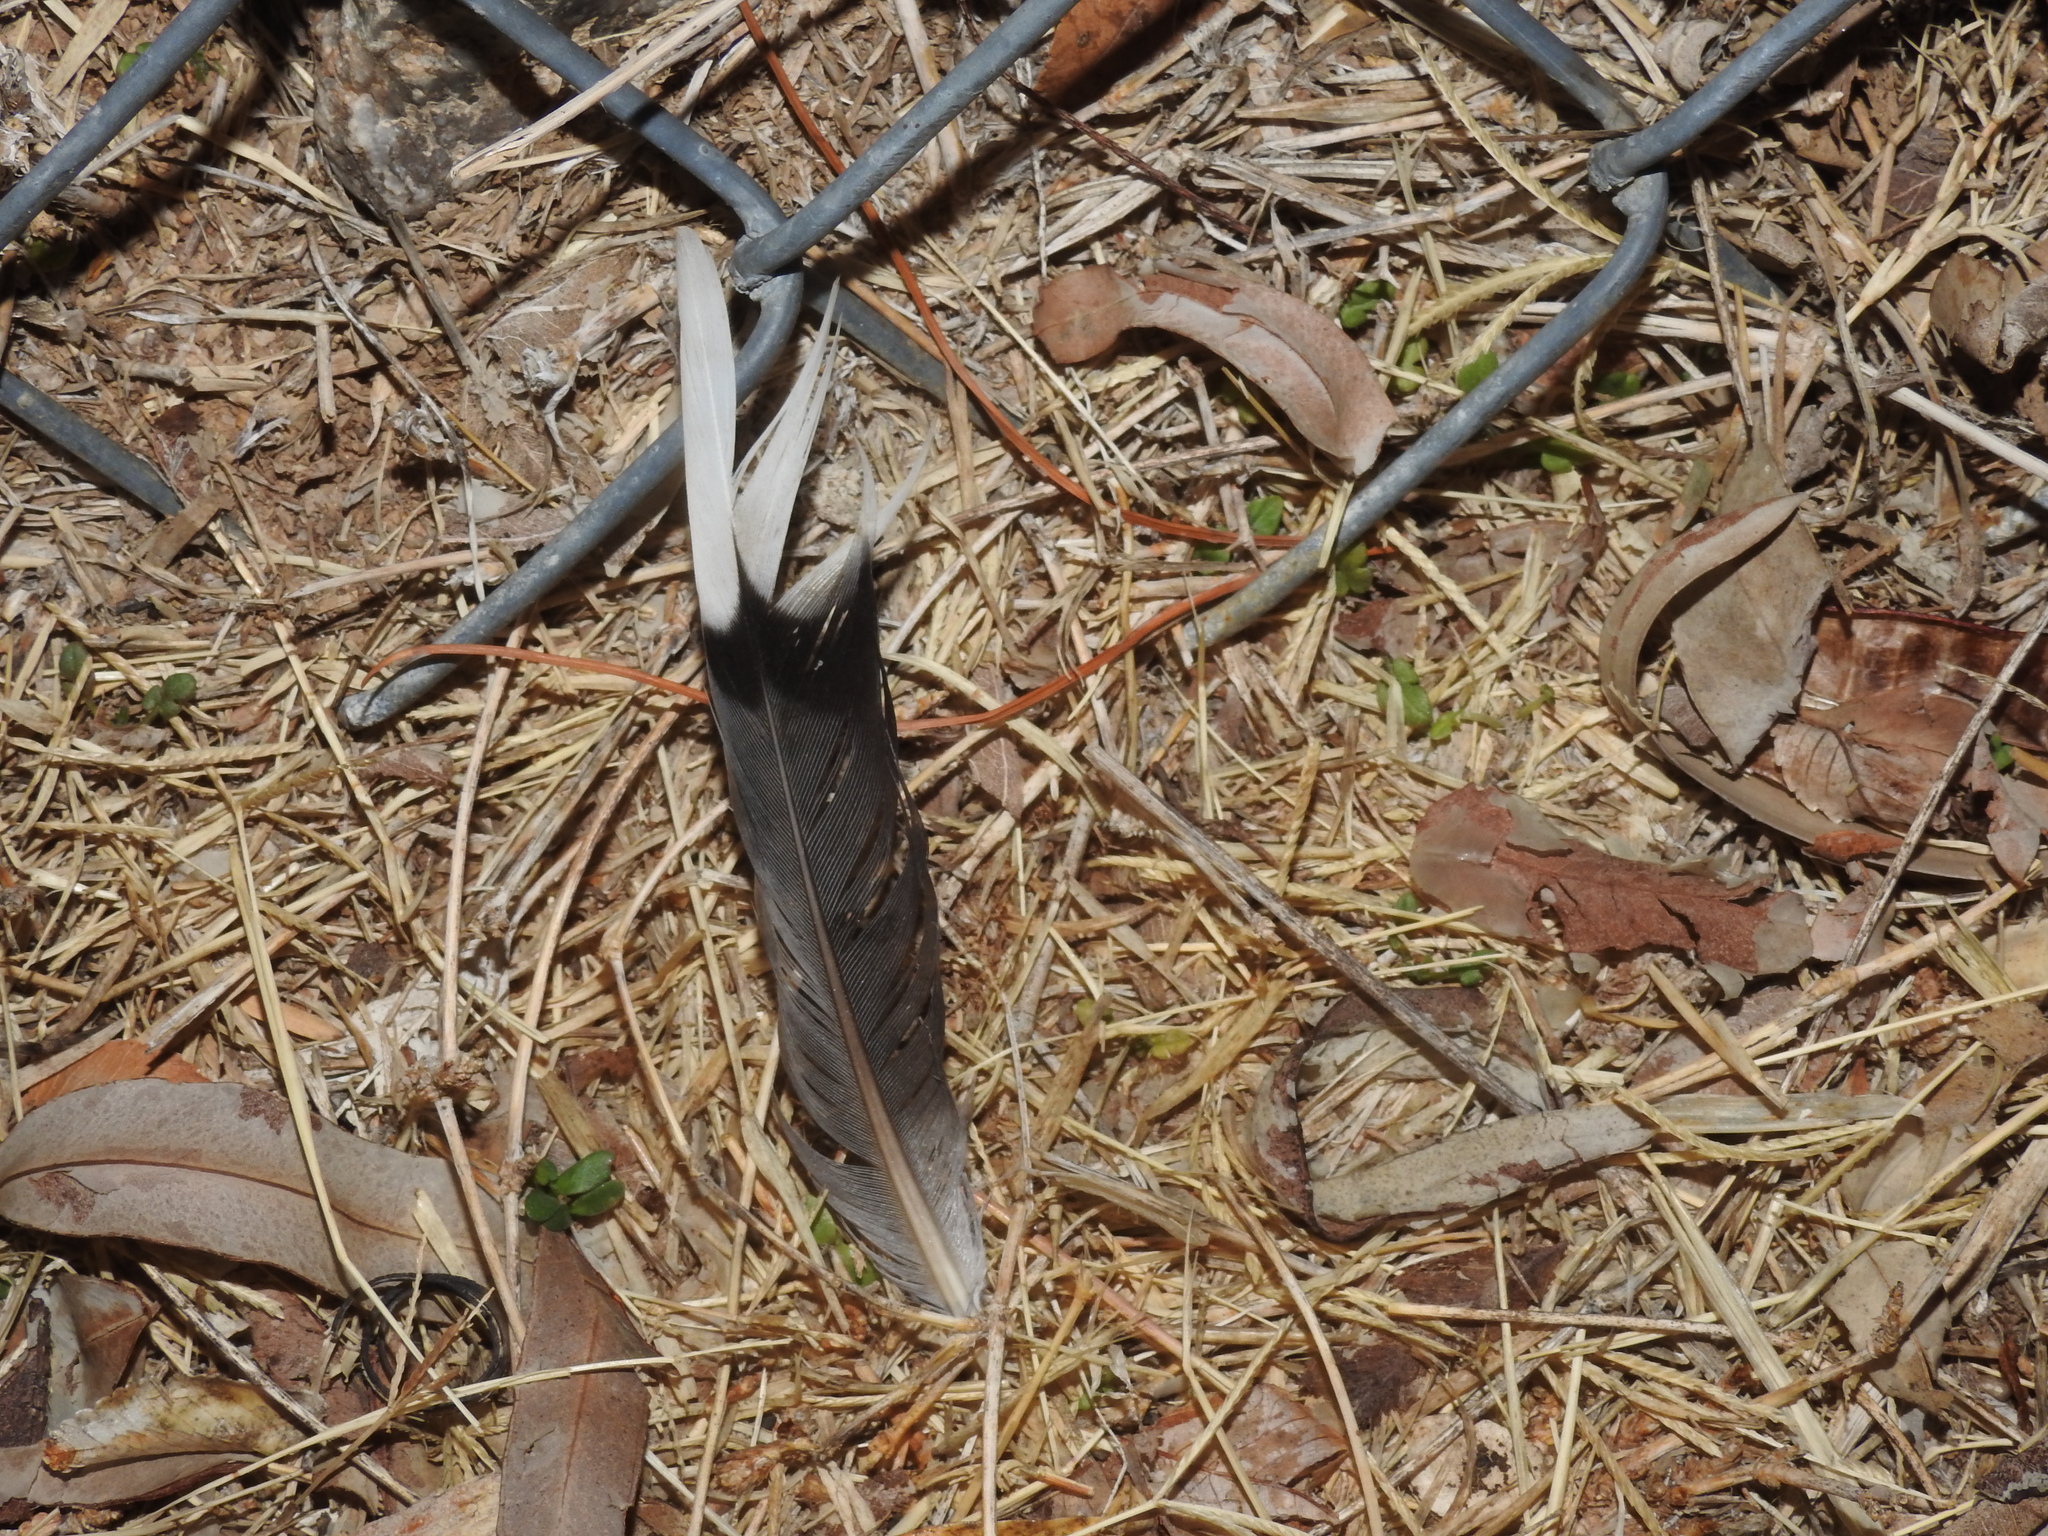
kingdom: Animalia
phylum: Chordata
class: Aves
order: Columbiformes
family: Columbidae
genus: Zenaida
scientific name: Zenaida macroura
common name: Mourning dove
